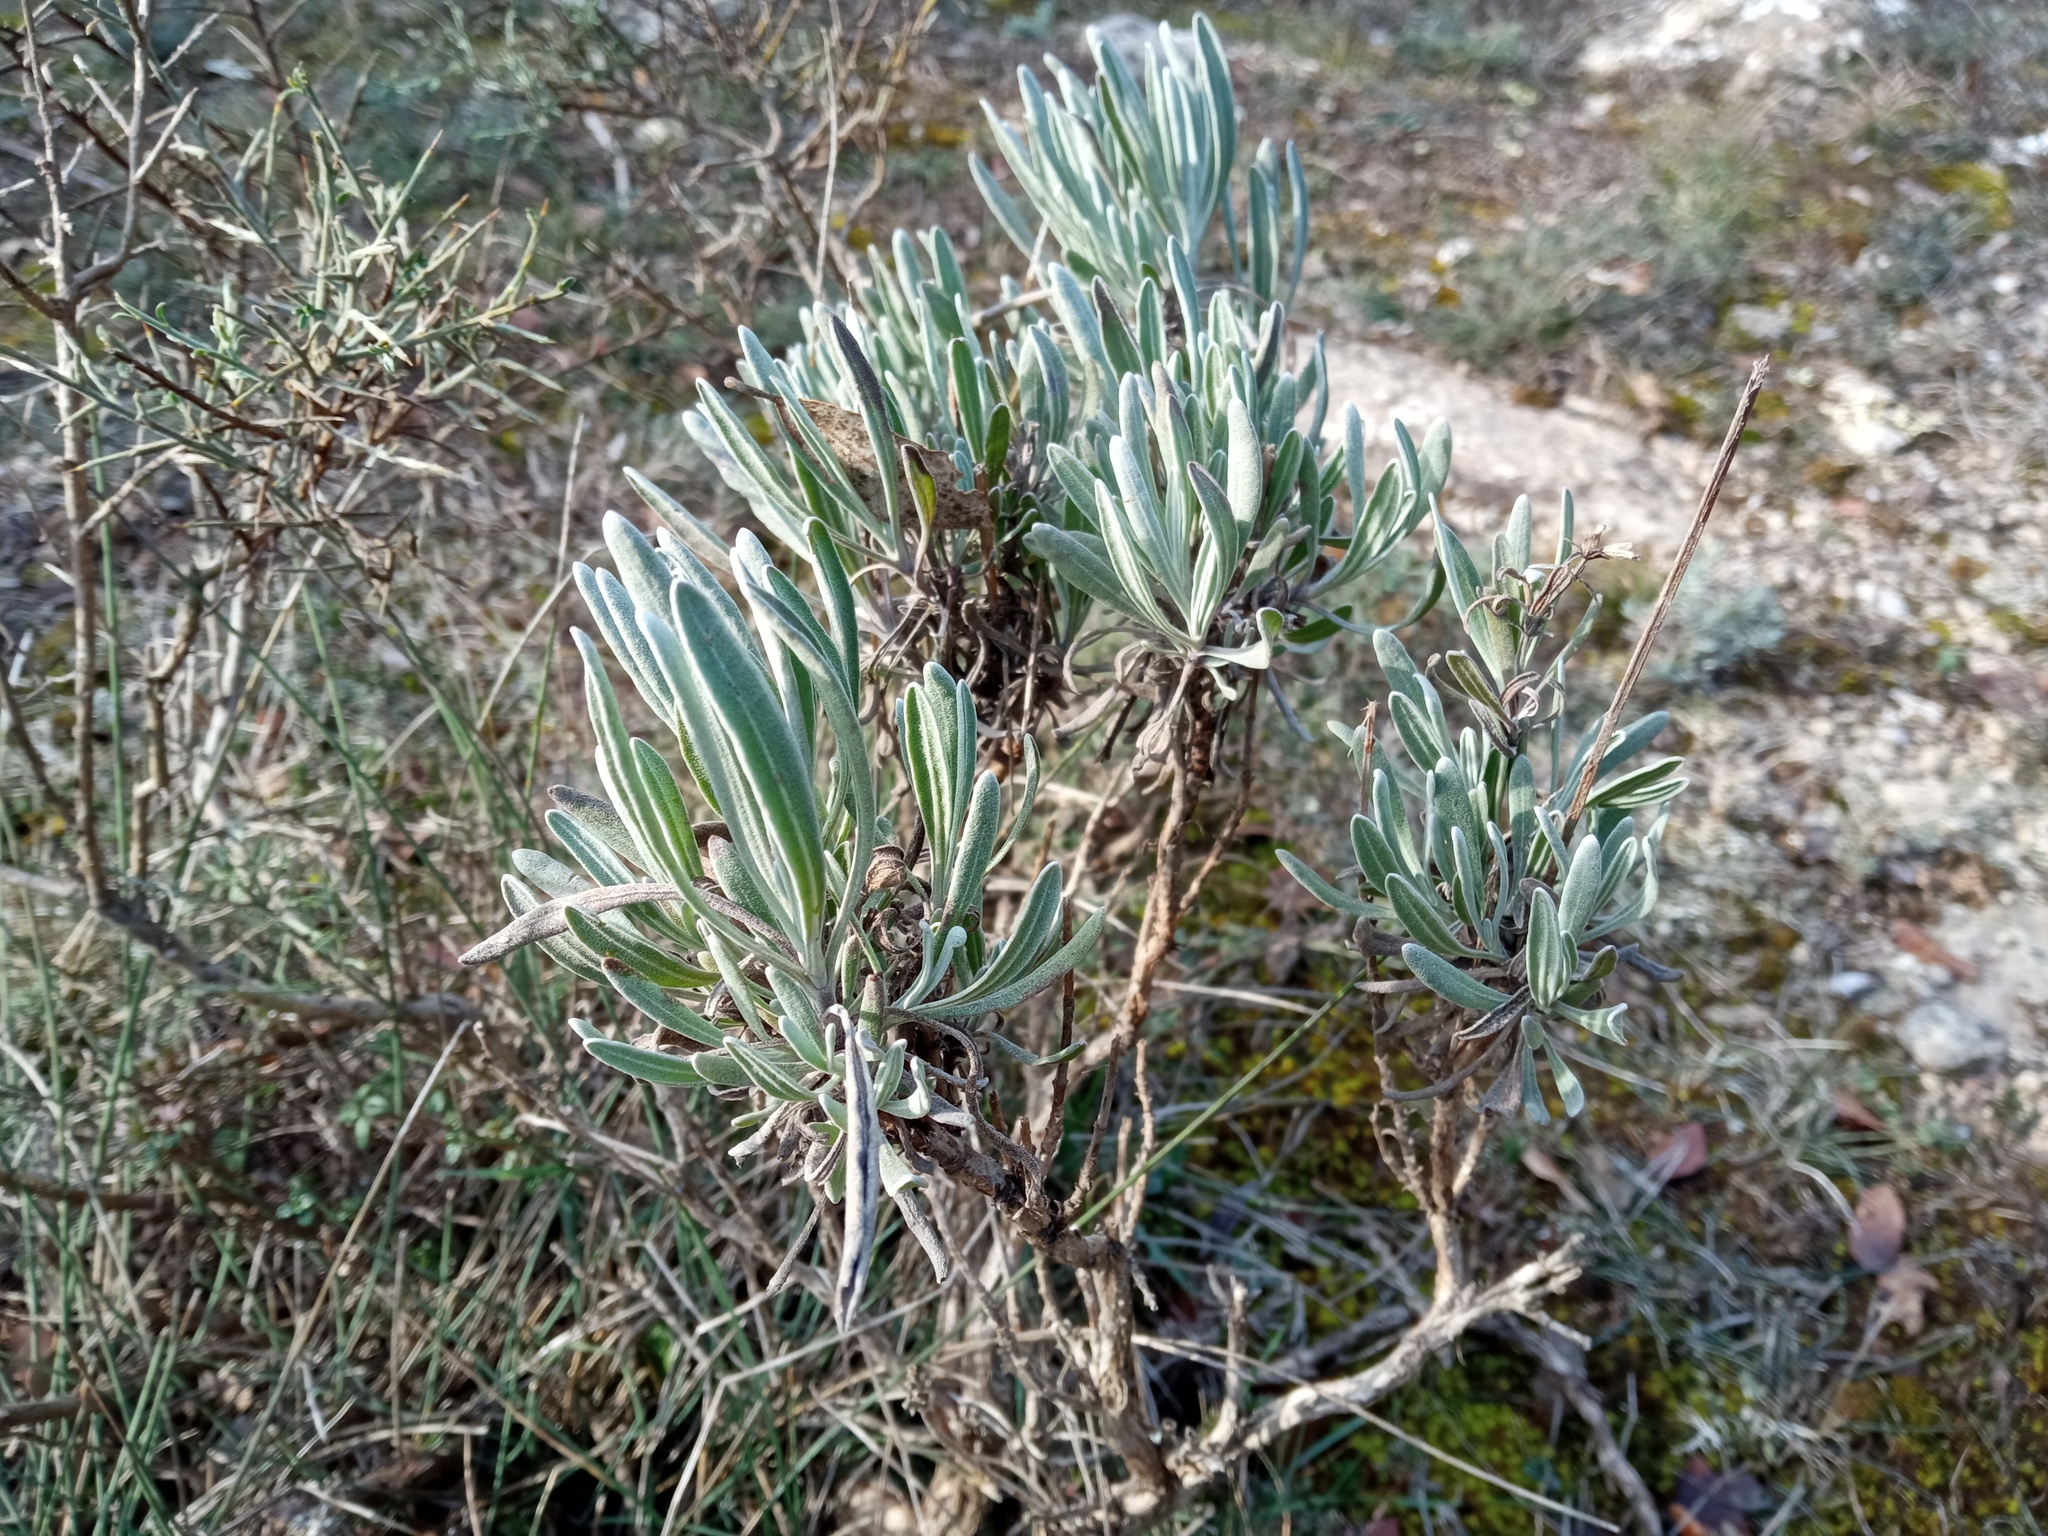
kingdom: Plantae
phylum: Tracheophyta
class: Magnoliopsida
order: Lamiales
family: Lamiaceae
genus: Lavandula
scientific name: Lavandula latifolia
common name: Spike lavendar
